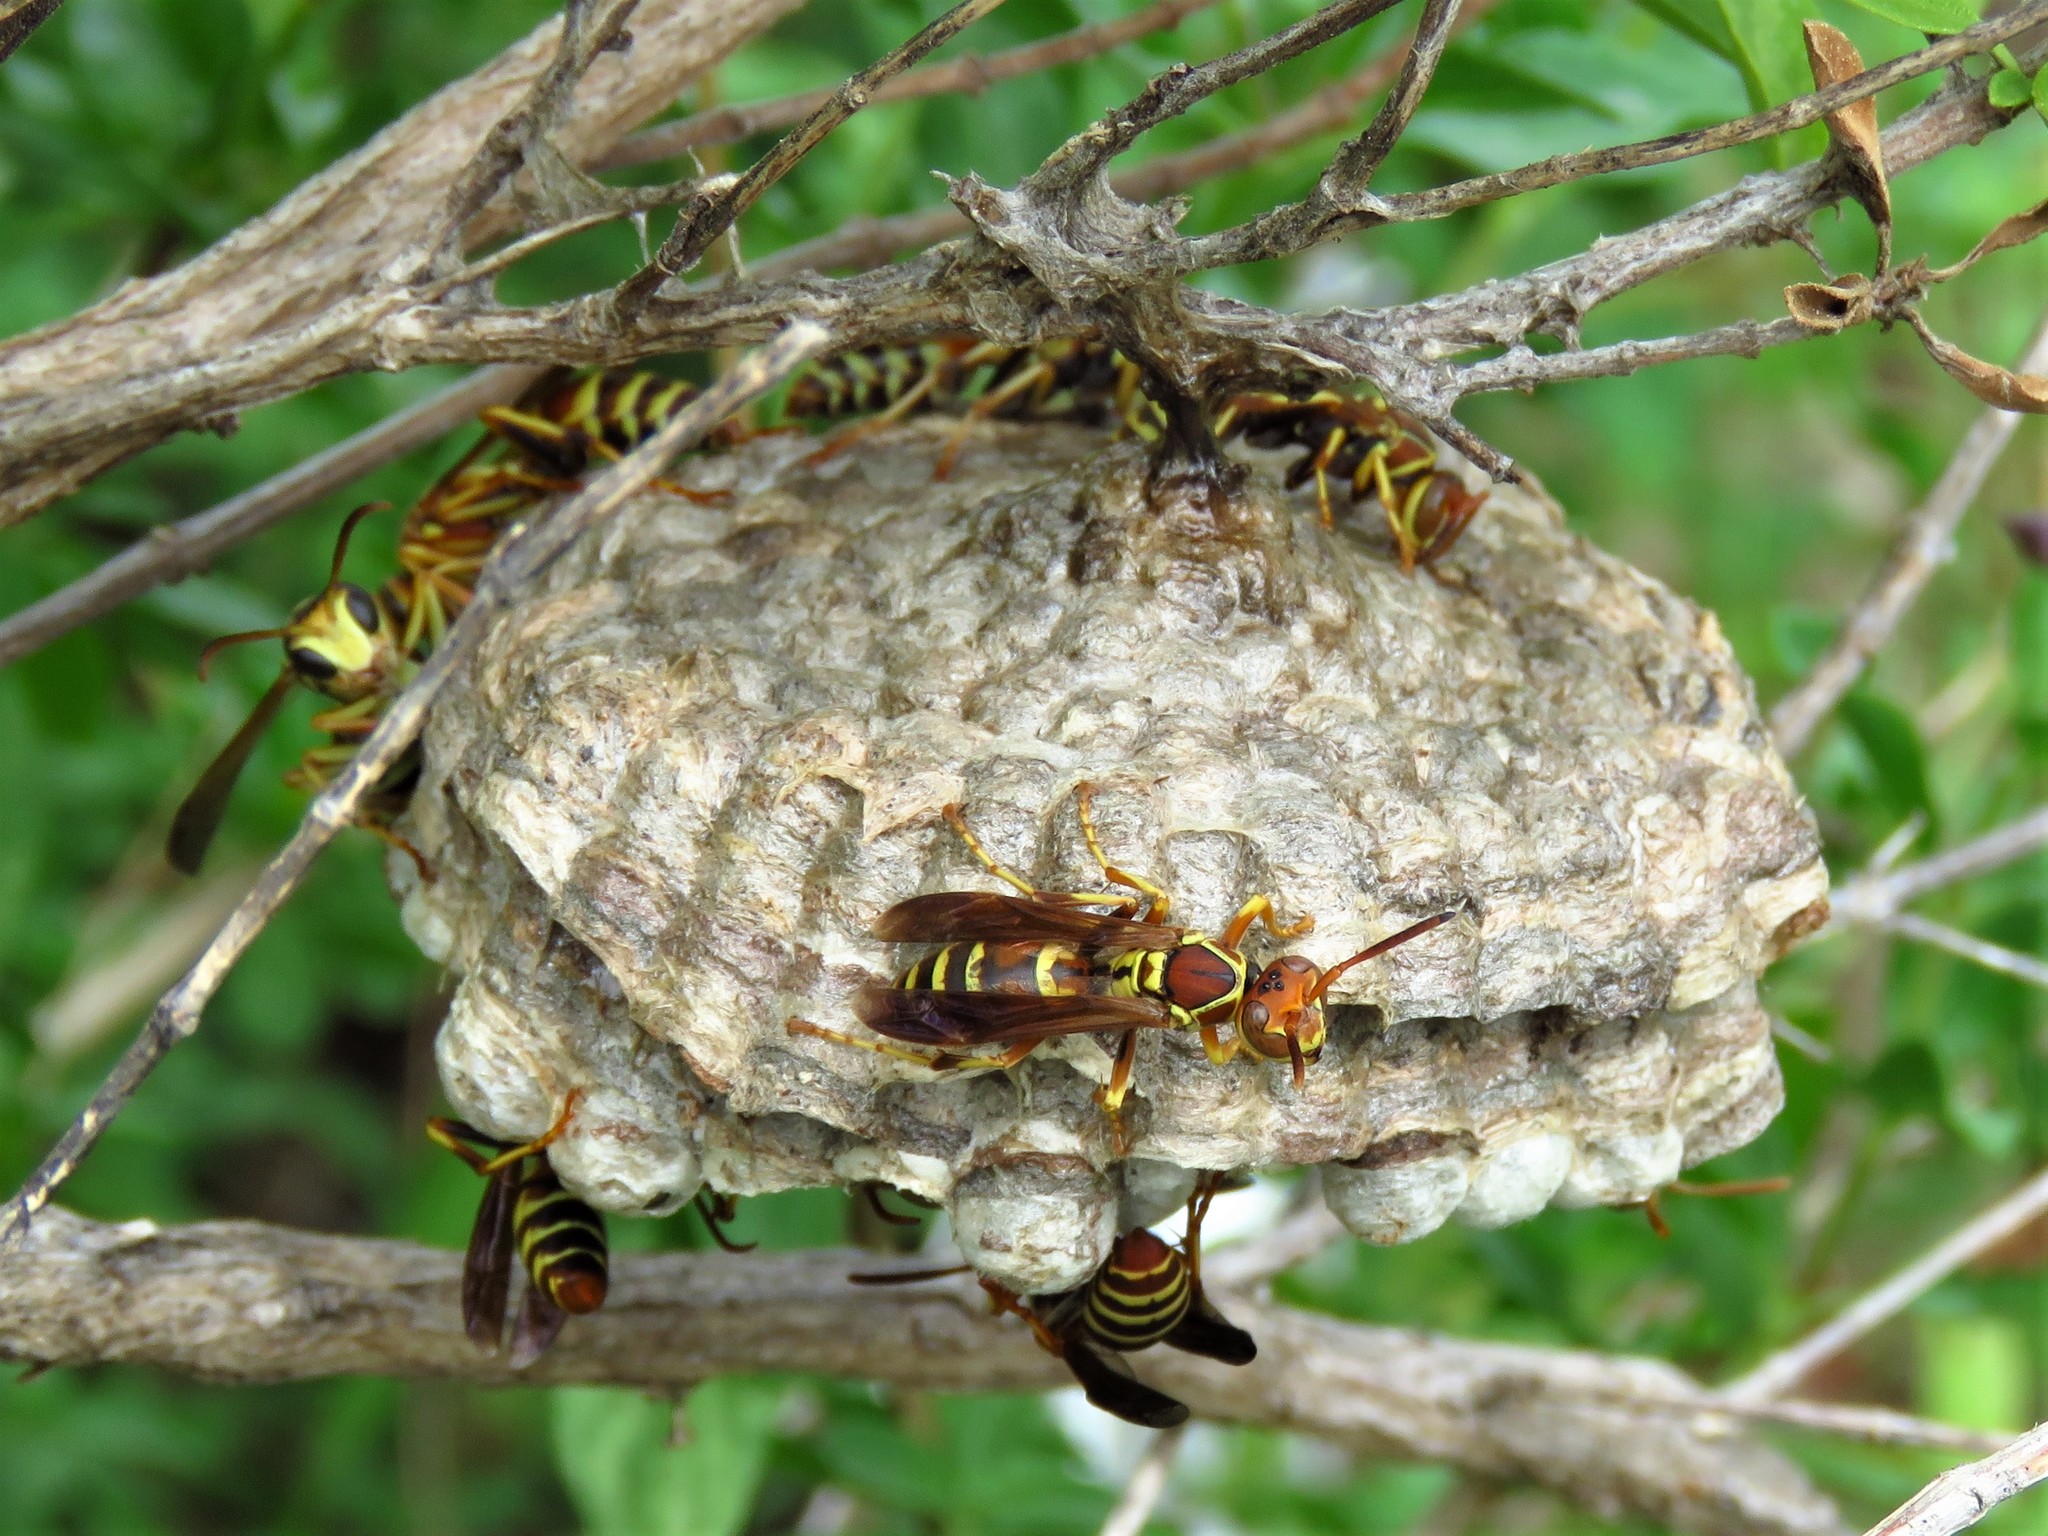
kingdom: Animalia
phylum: Arthropoda
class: Insecta
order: Hymenoptera
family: Eumenidae
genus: Polistes
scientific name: Polistes dorsalis
